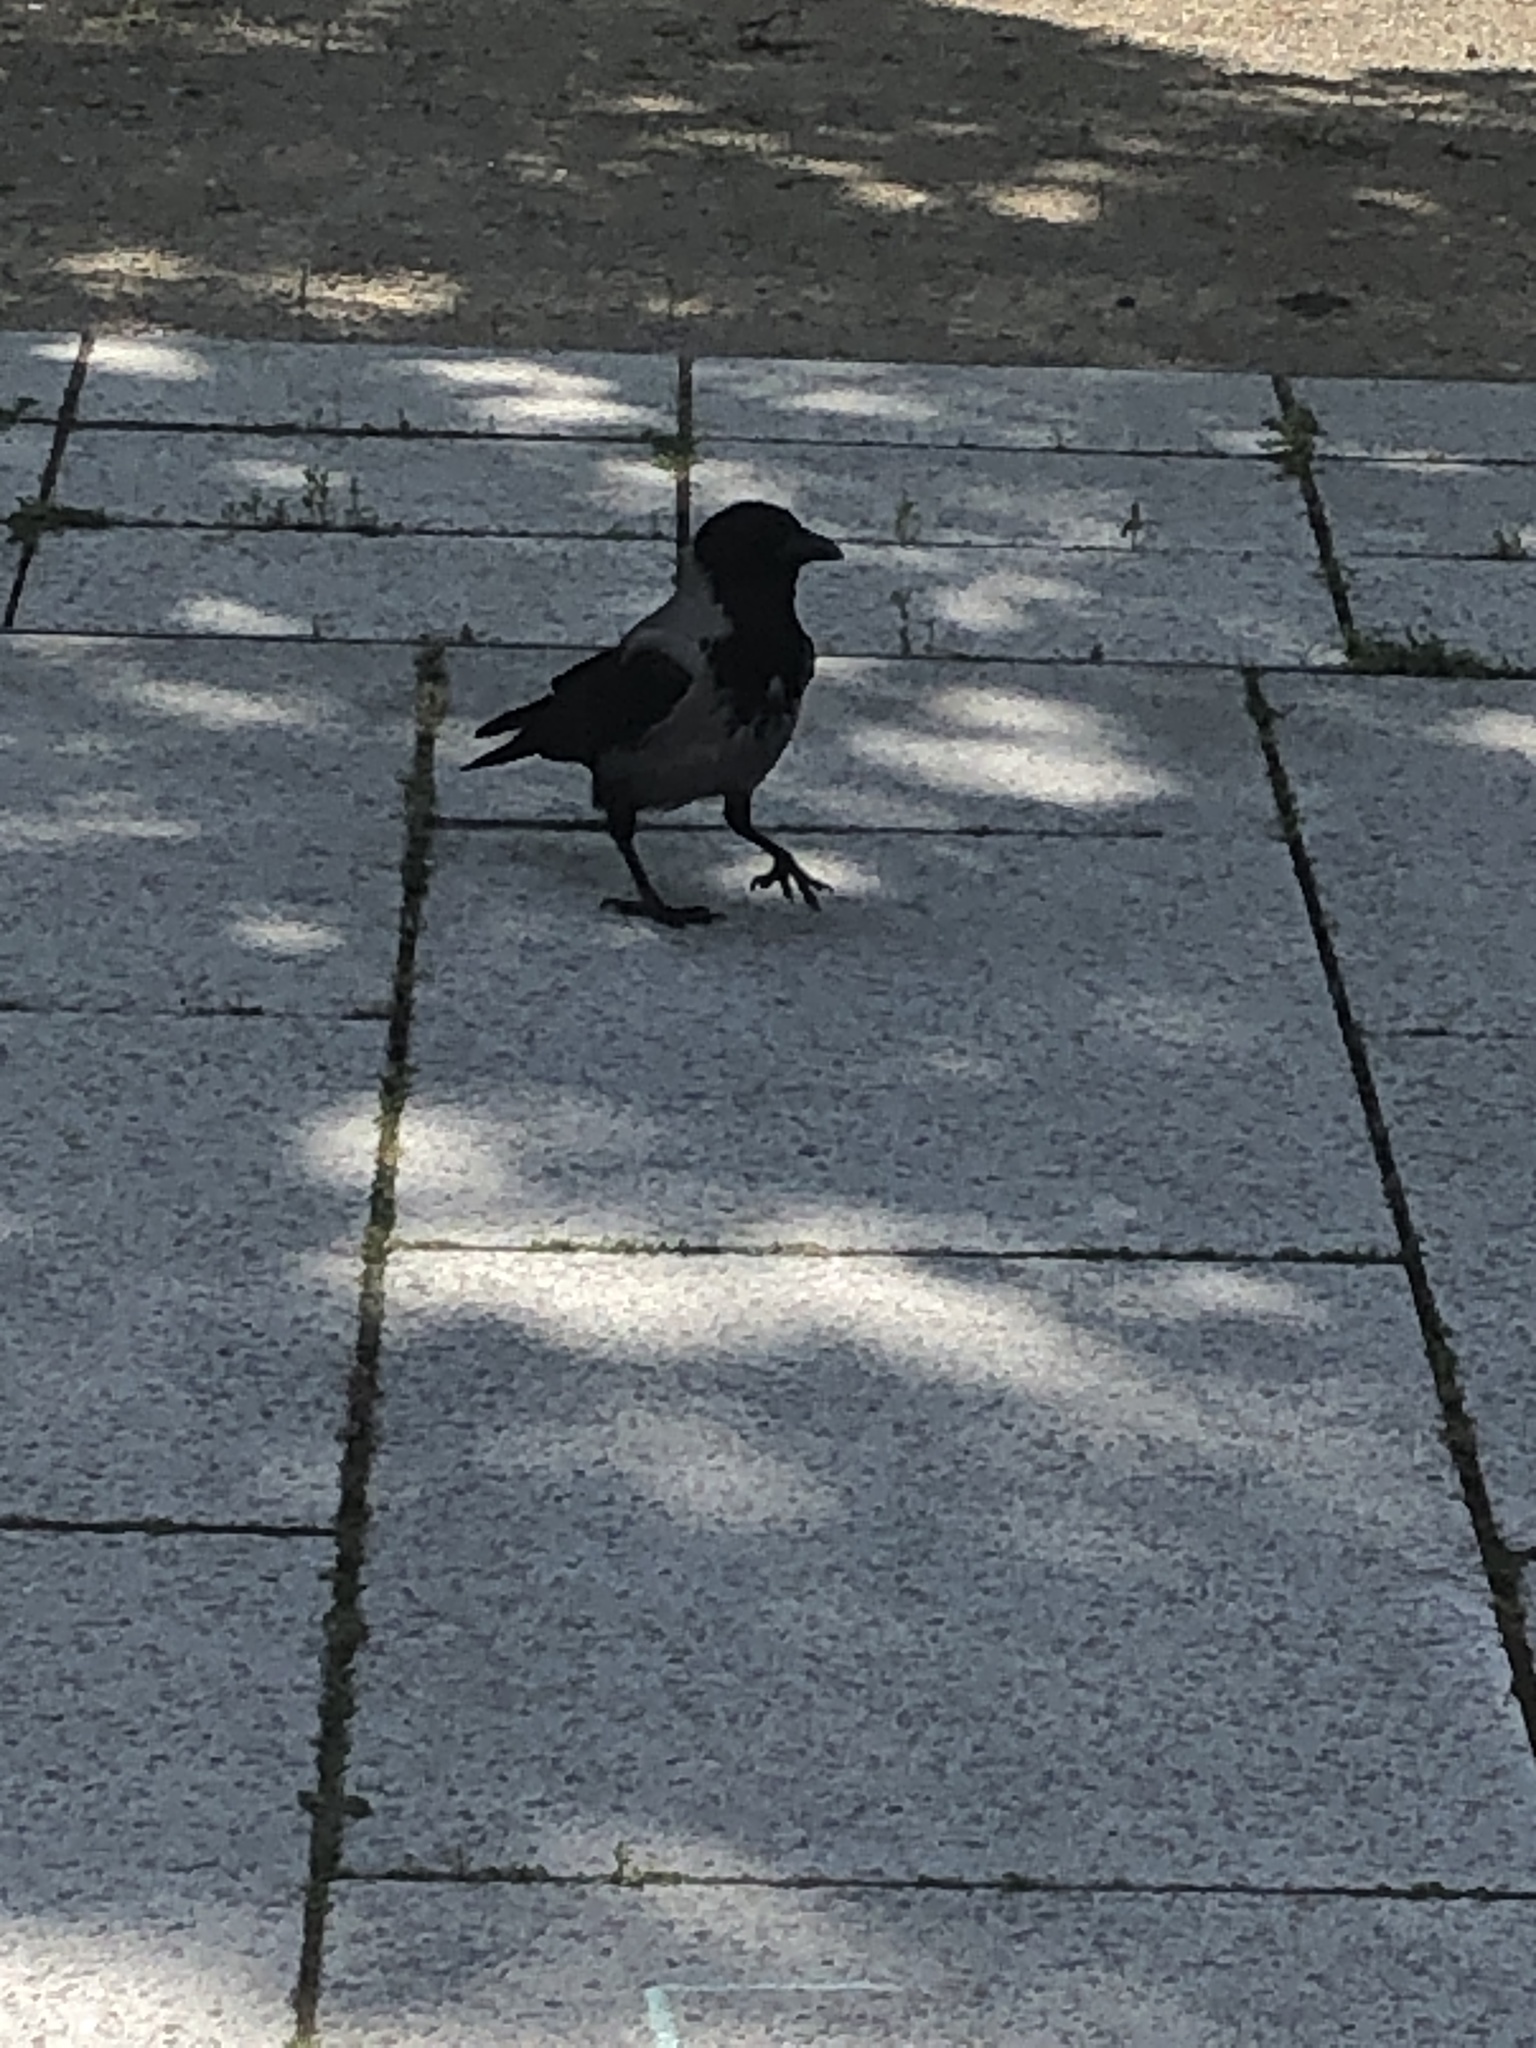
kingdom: Animalia
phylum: Chordata
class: Aves
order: Passeriformes
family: Corvidae
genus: Corvus
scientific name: Corvus cornix
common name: Hooded crow
